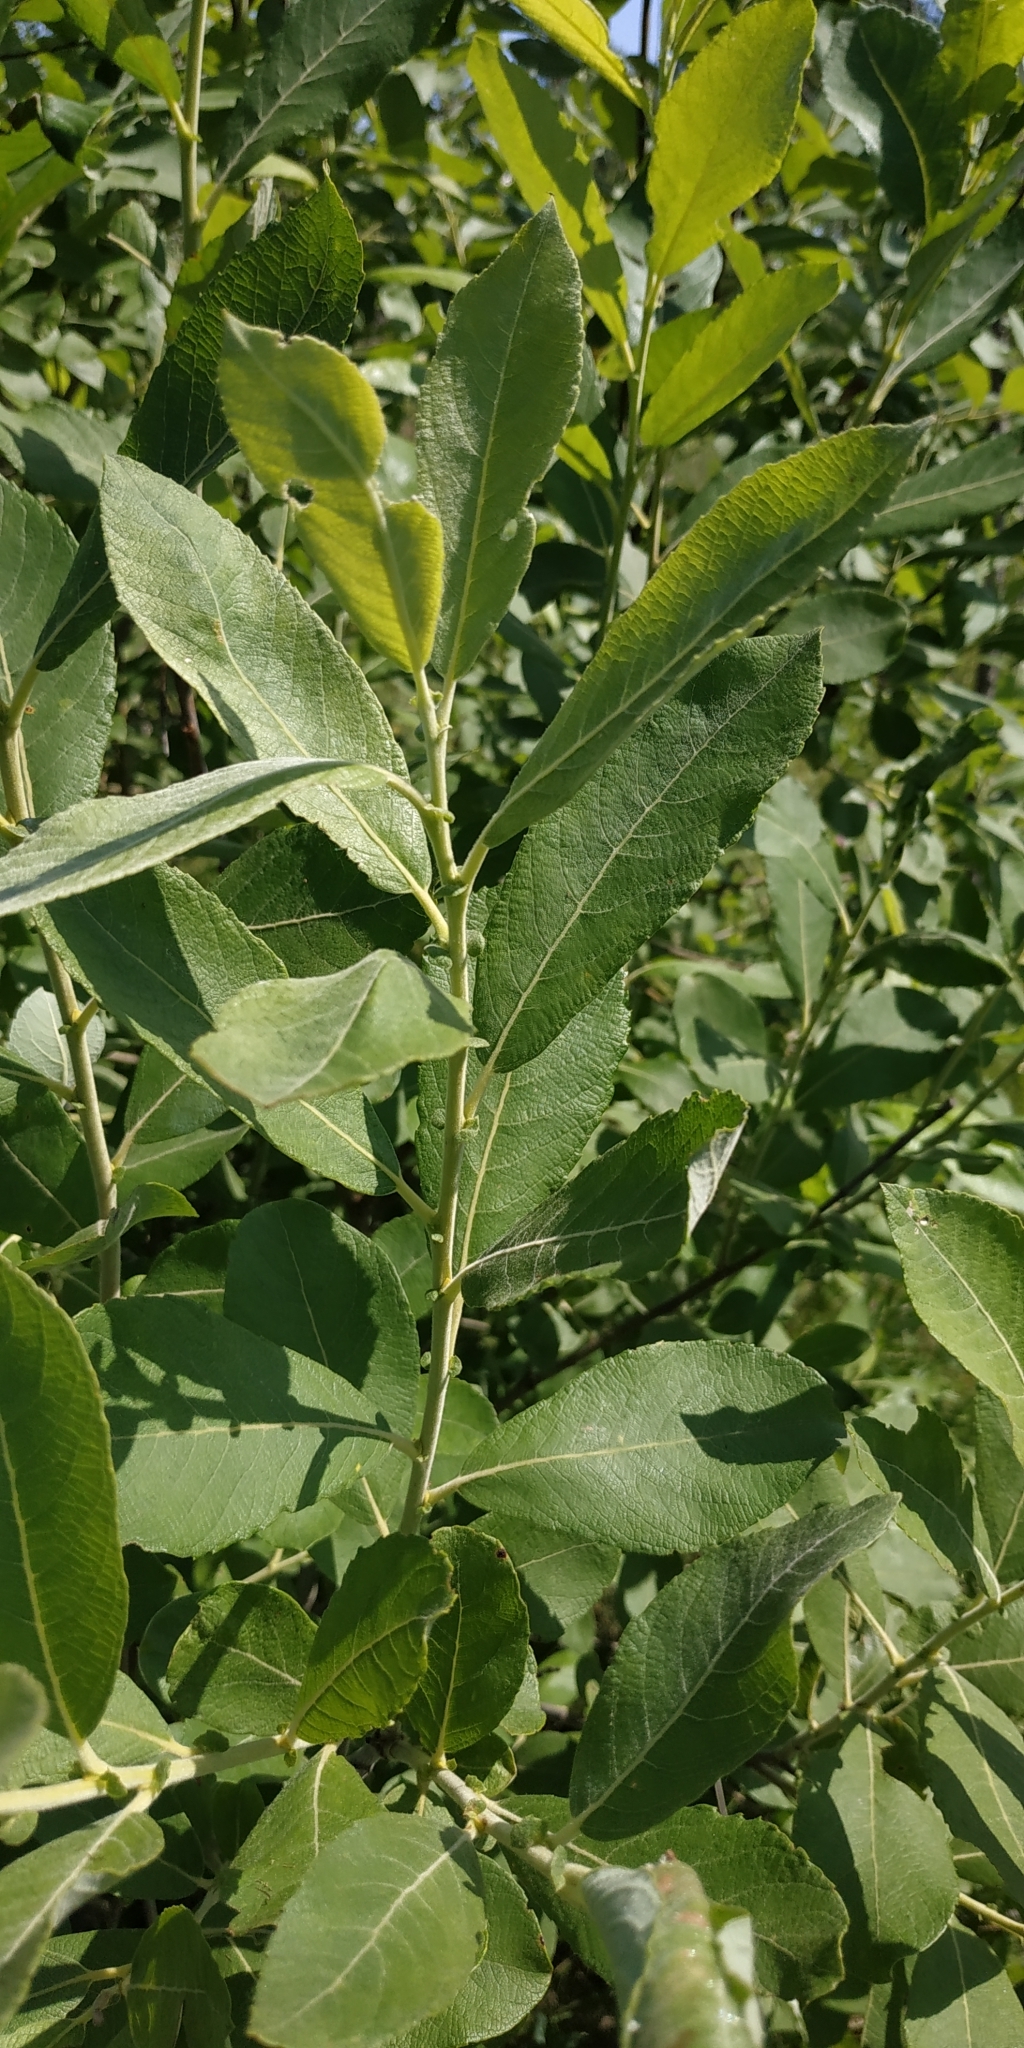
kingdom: Plantae
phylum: Tracheophyta
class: Magnoliopsida
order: Malpighiales
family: Salicaceae
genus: Salix
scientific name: Salix cinerea
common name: Common sallow
